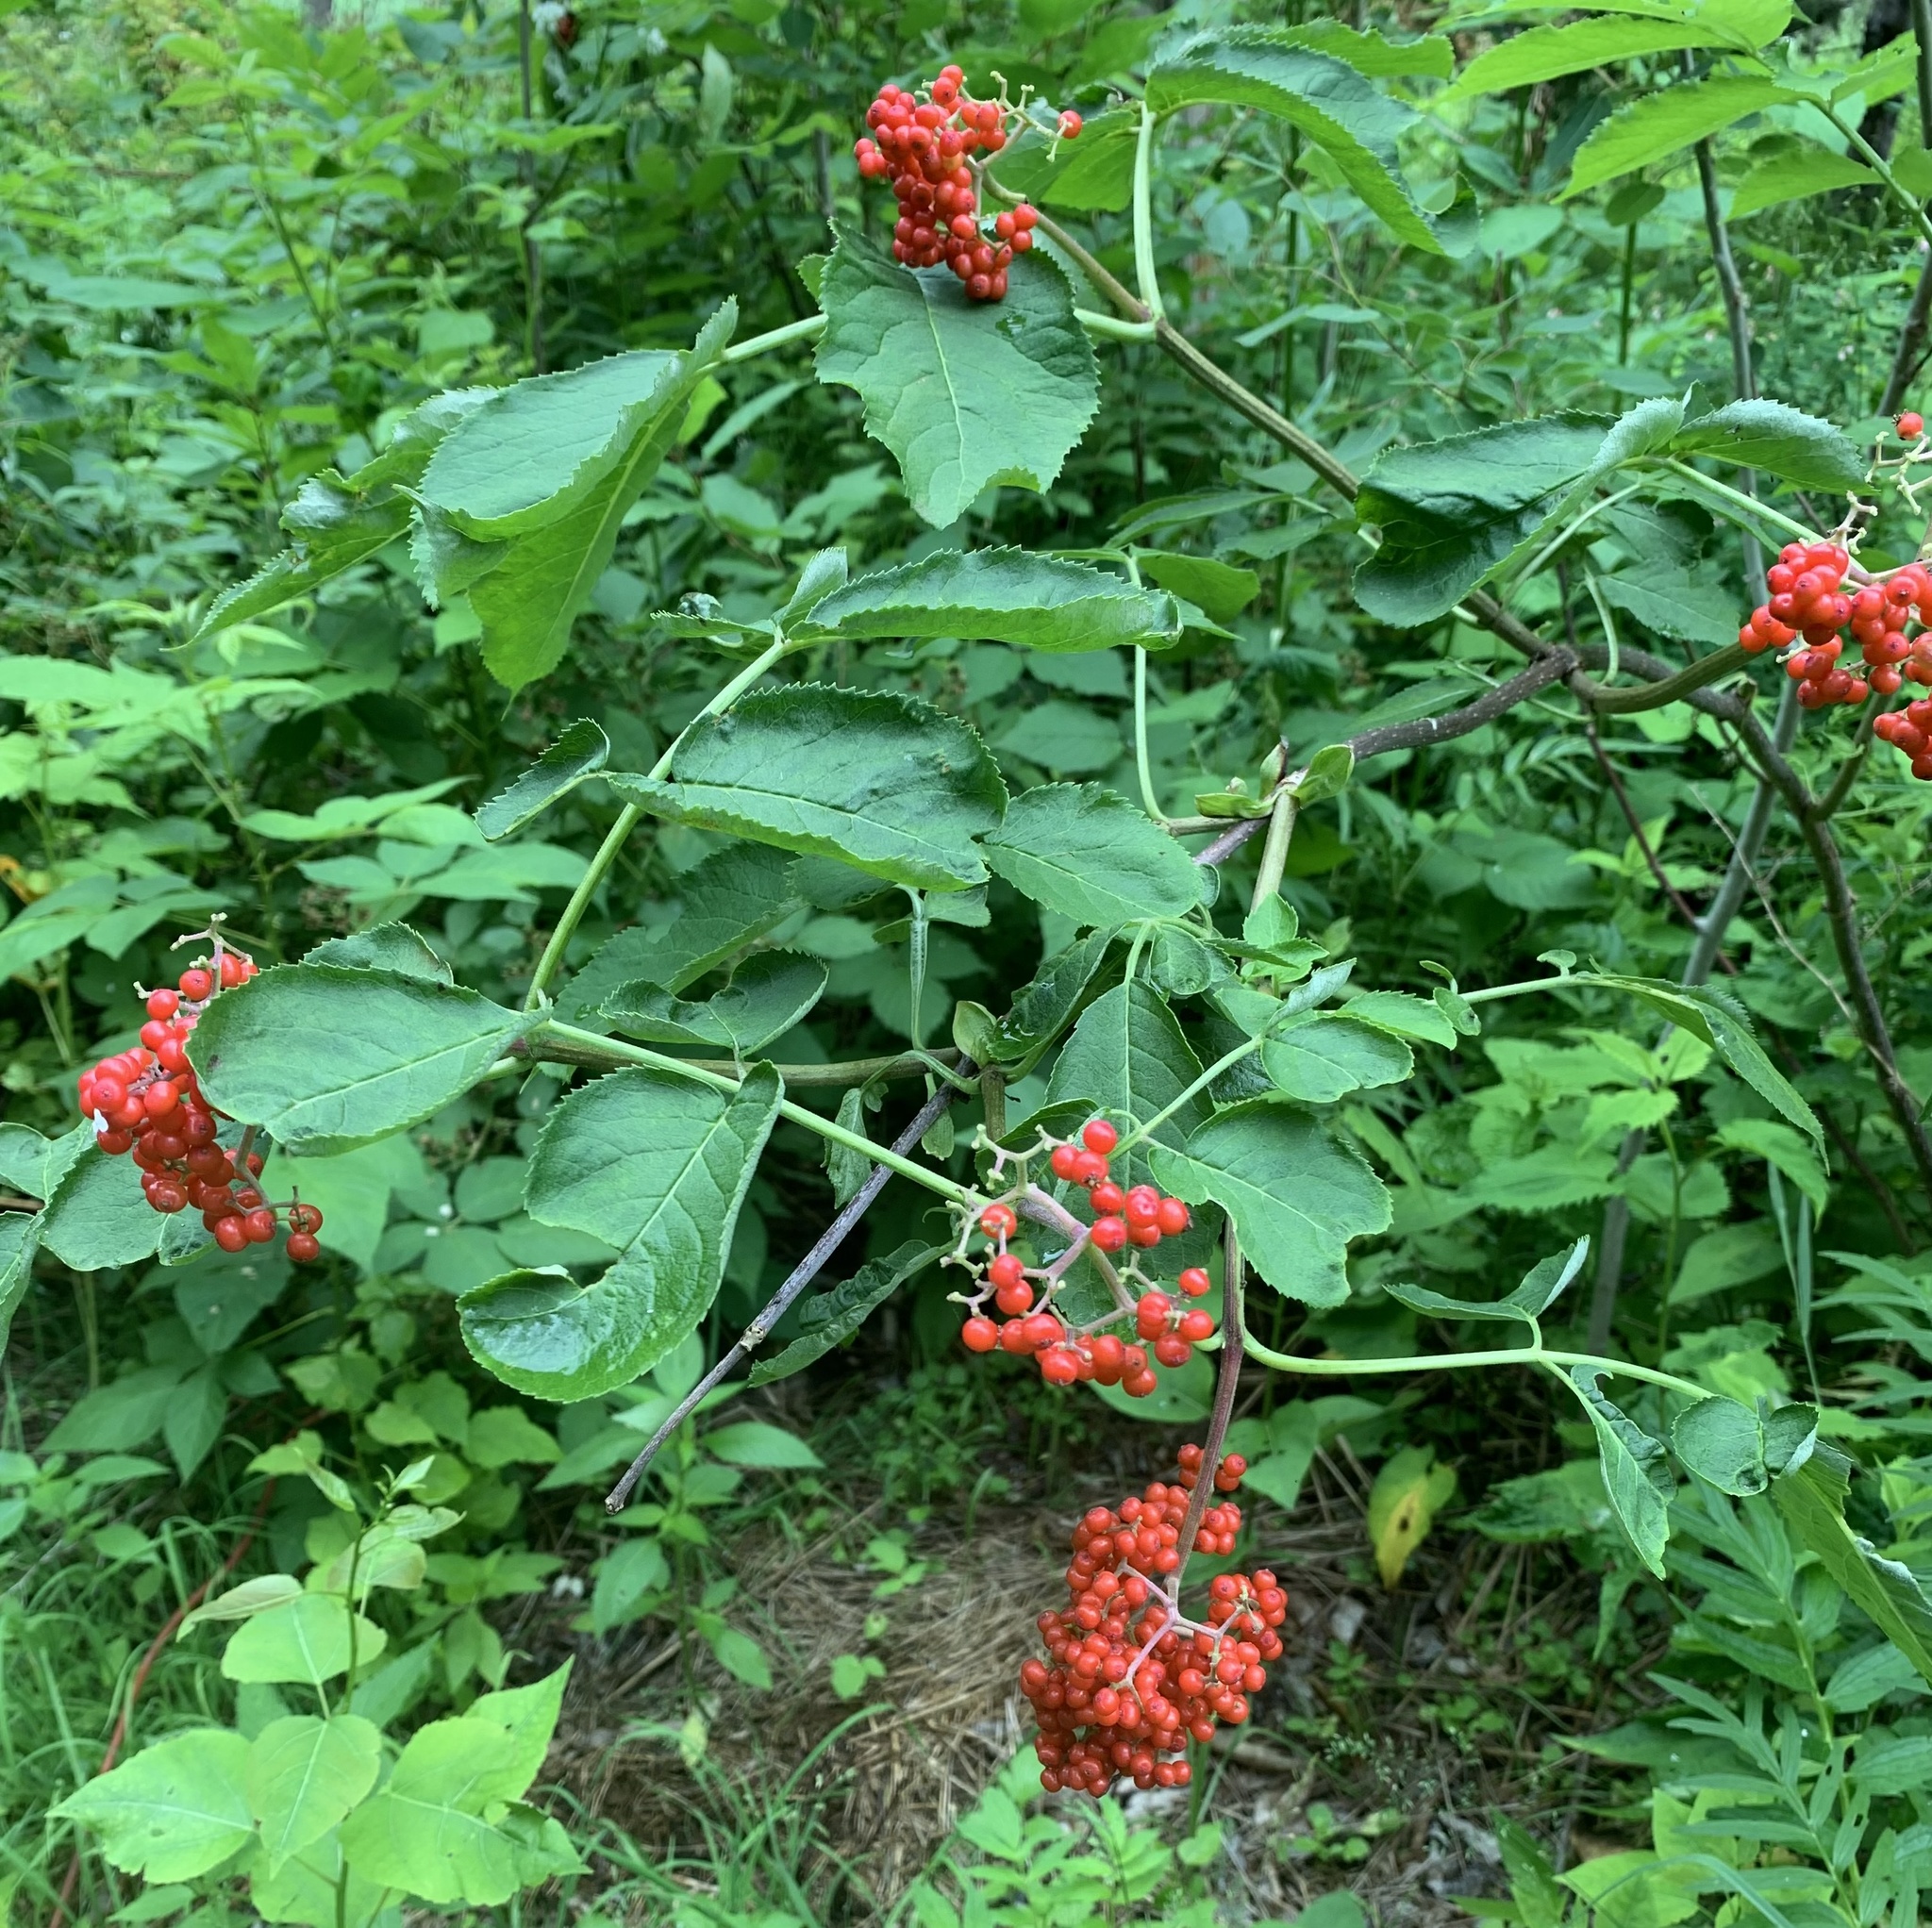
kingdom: Plantae
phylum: Tracheophyta
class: Magnoliopsida
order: Dipsacales
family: Viburnaceae
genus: Sambucus
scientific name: Sambucus racemosa
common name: Red-berried elder
